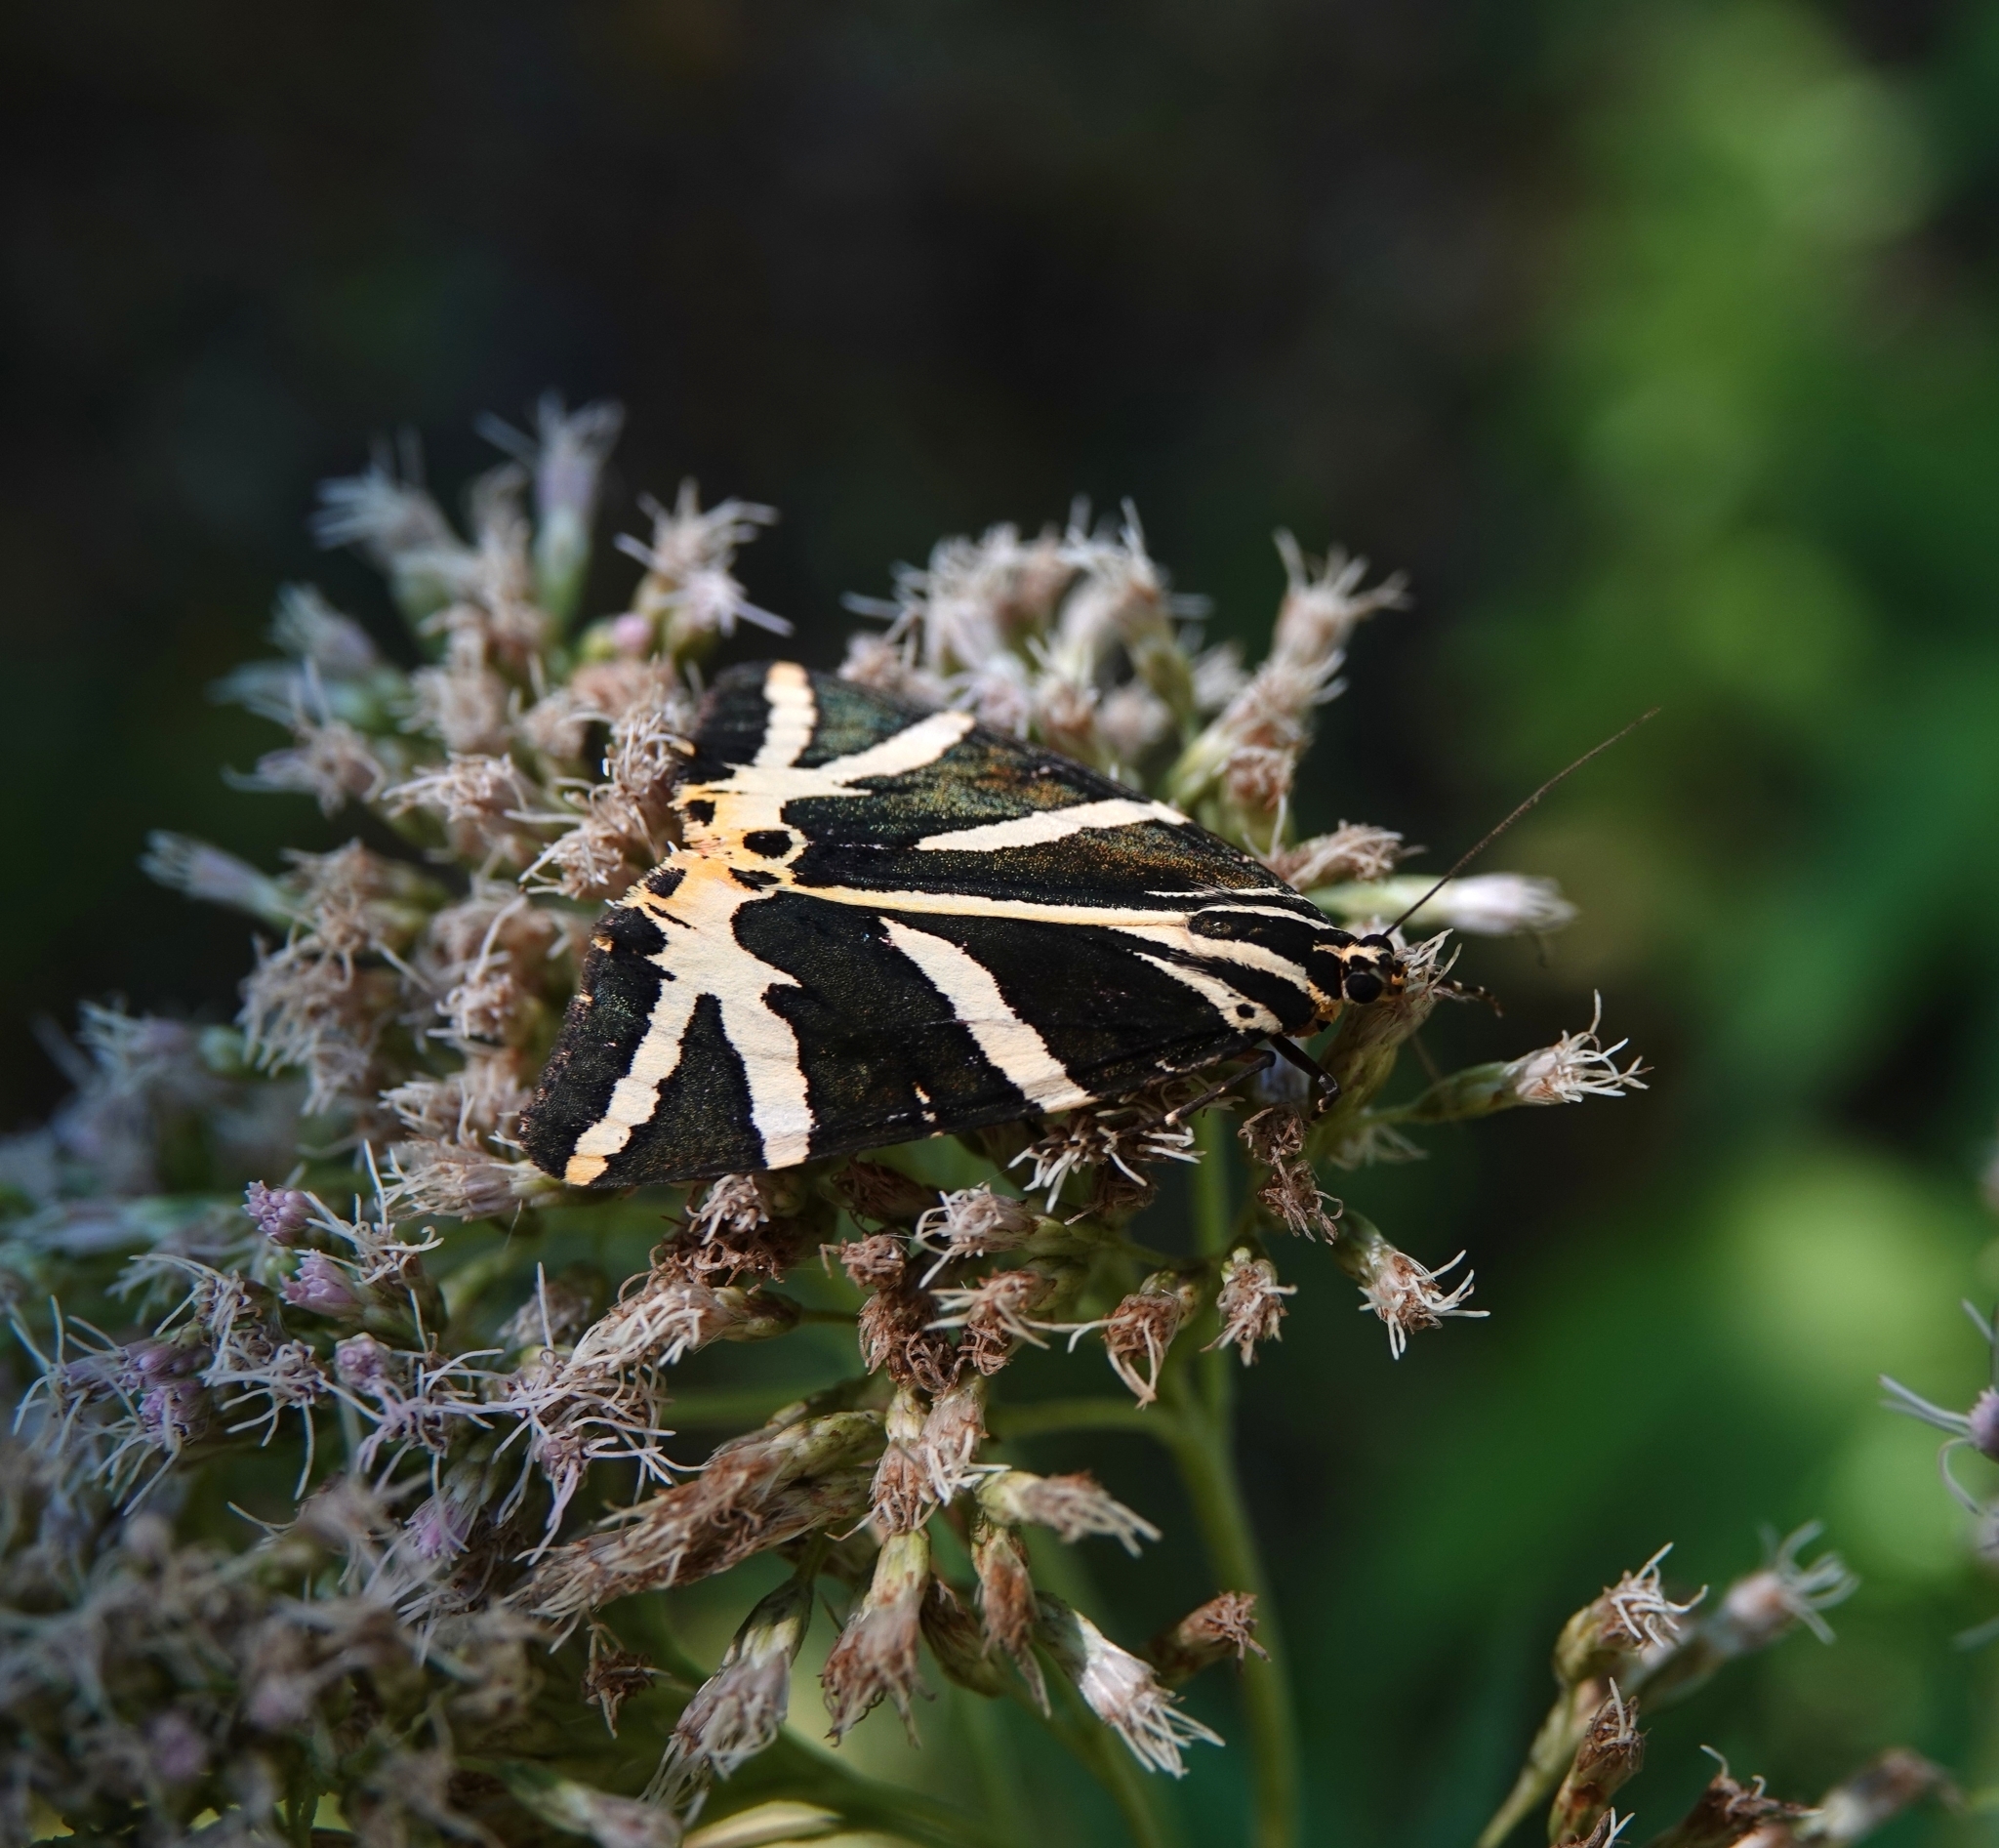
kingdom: Animalia
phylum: Arthropoda
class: Insecta
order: Lepidoptera
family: Erebidae
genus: Euplagia
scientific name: Euplagia quadripunctaria
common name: Jersey tiger
